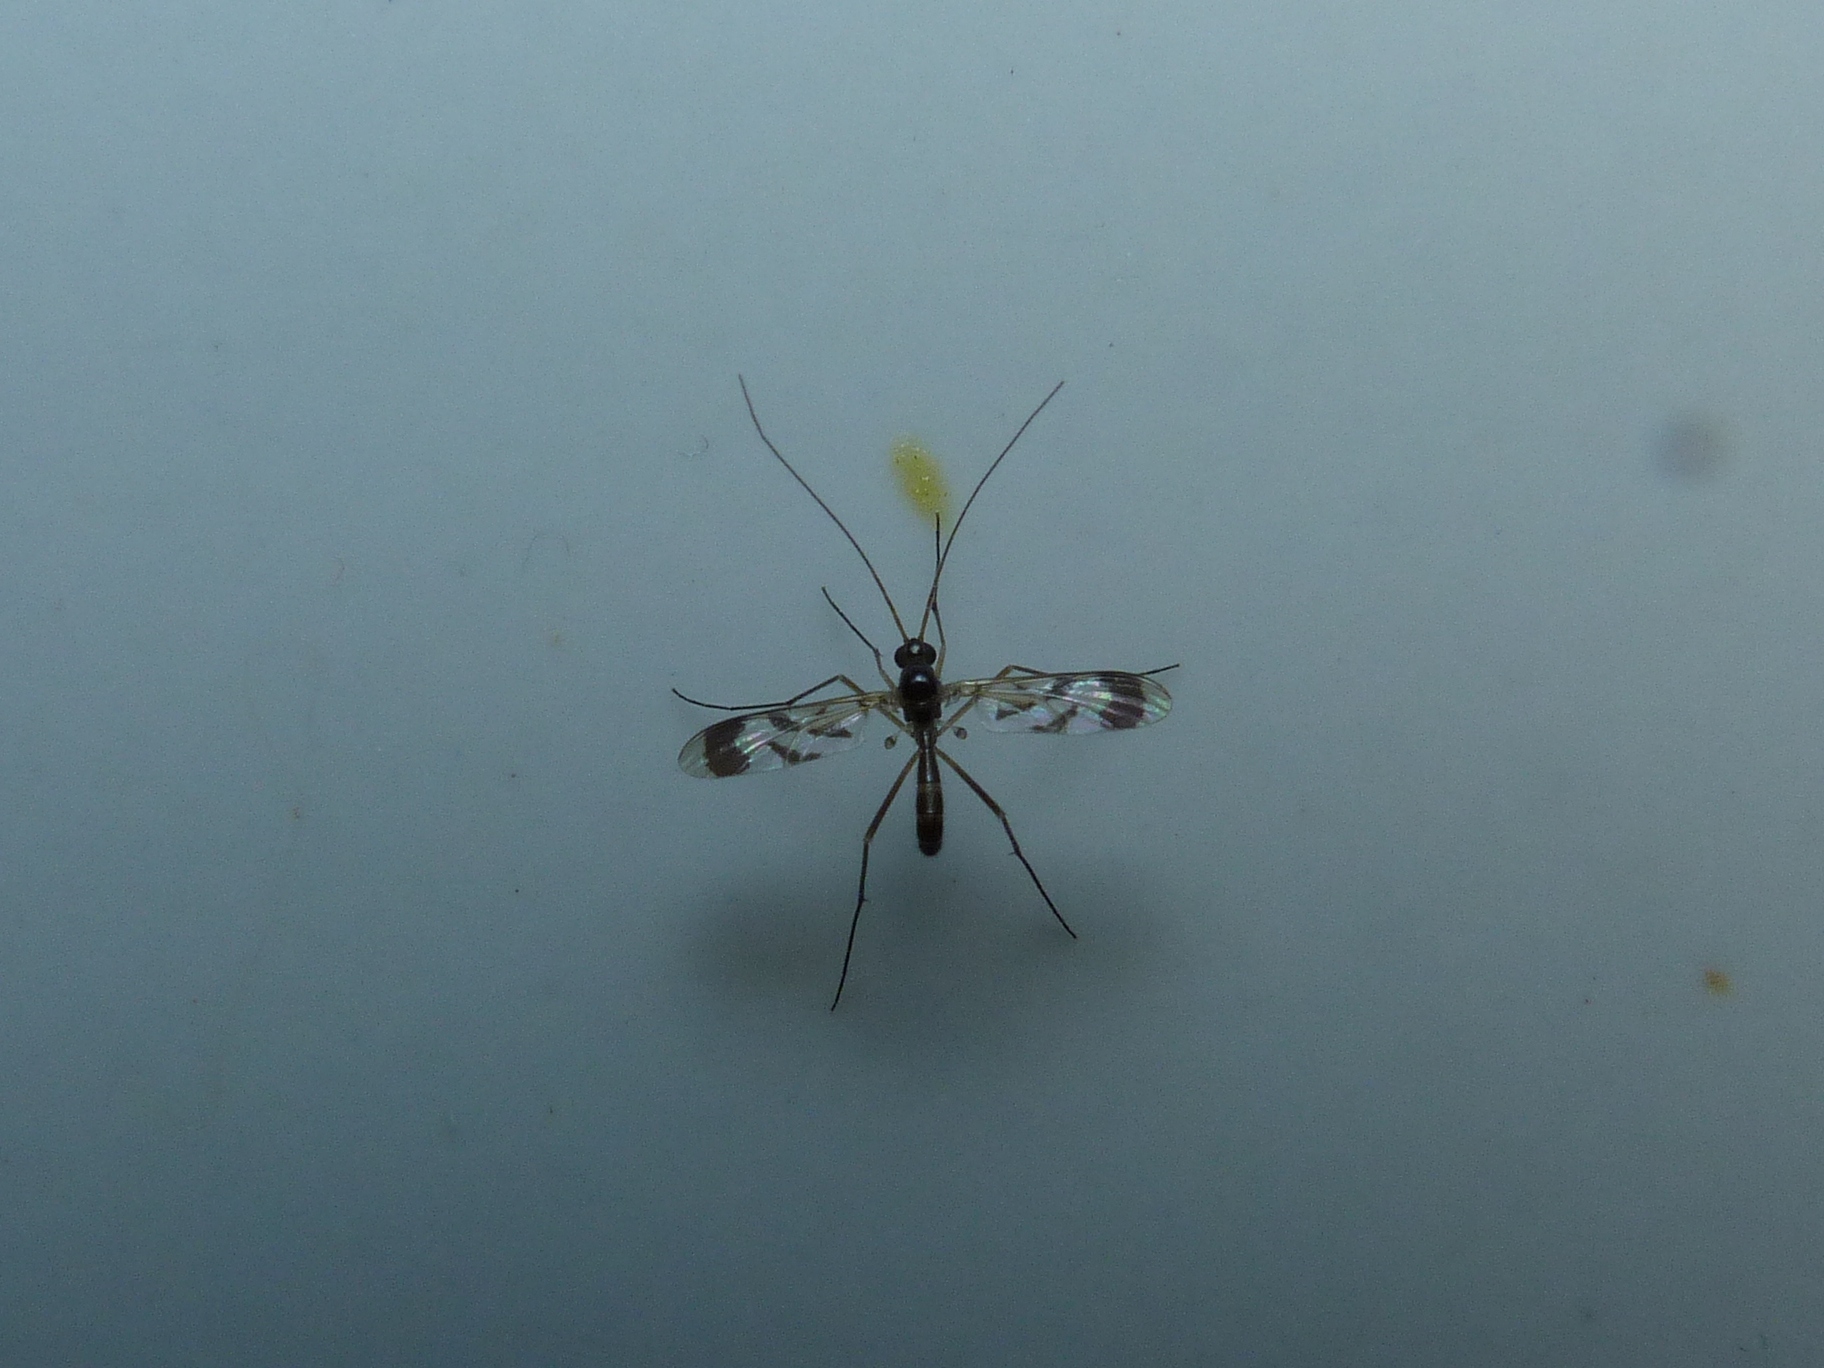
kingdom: Animalia
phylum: Arthropoda
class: Insecta
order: Diptera
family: Keroplatidae
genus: Macrocera
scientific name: Macrocera decorosa
